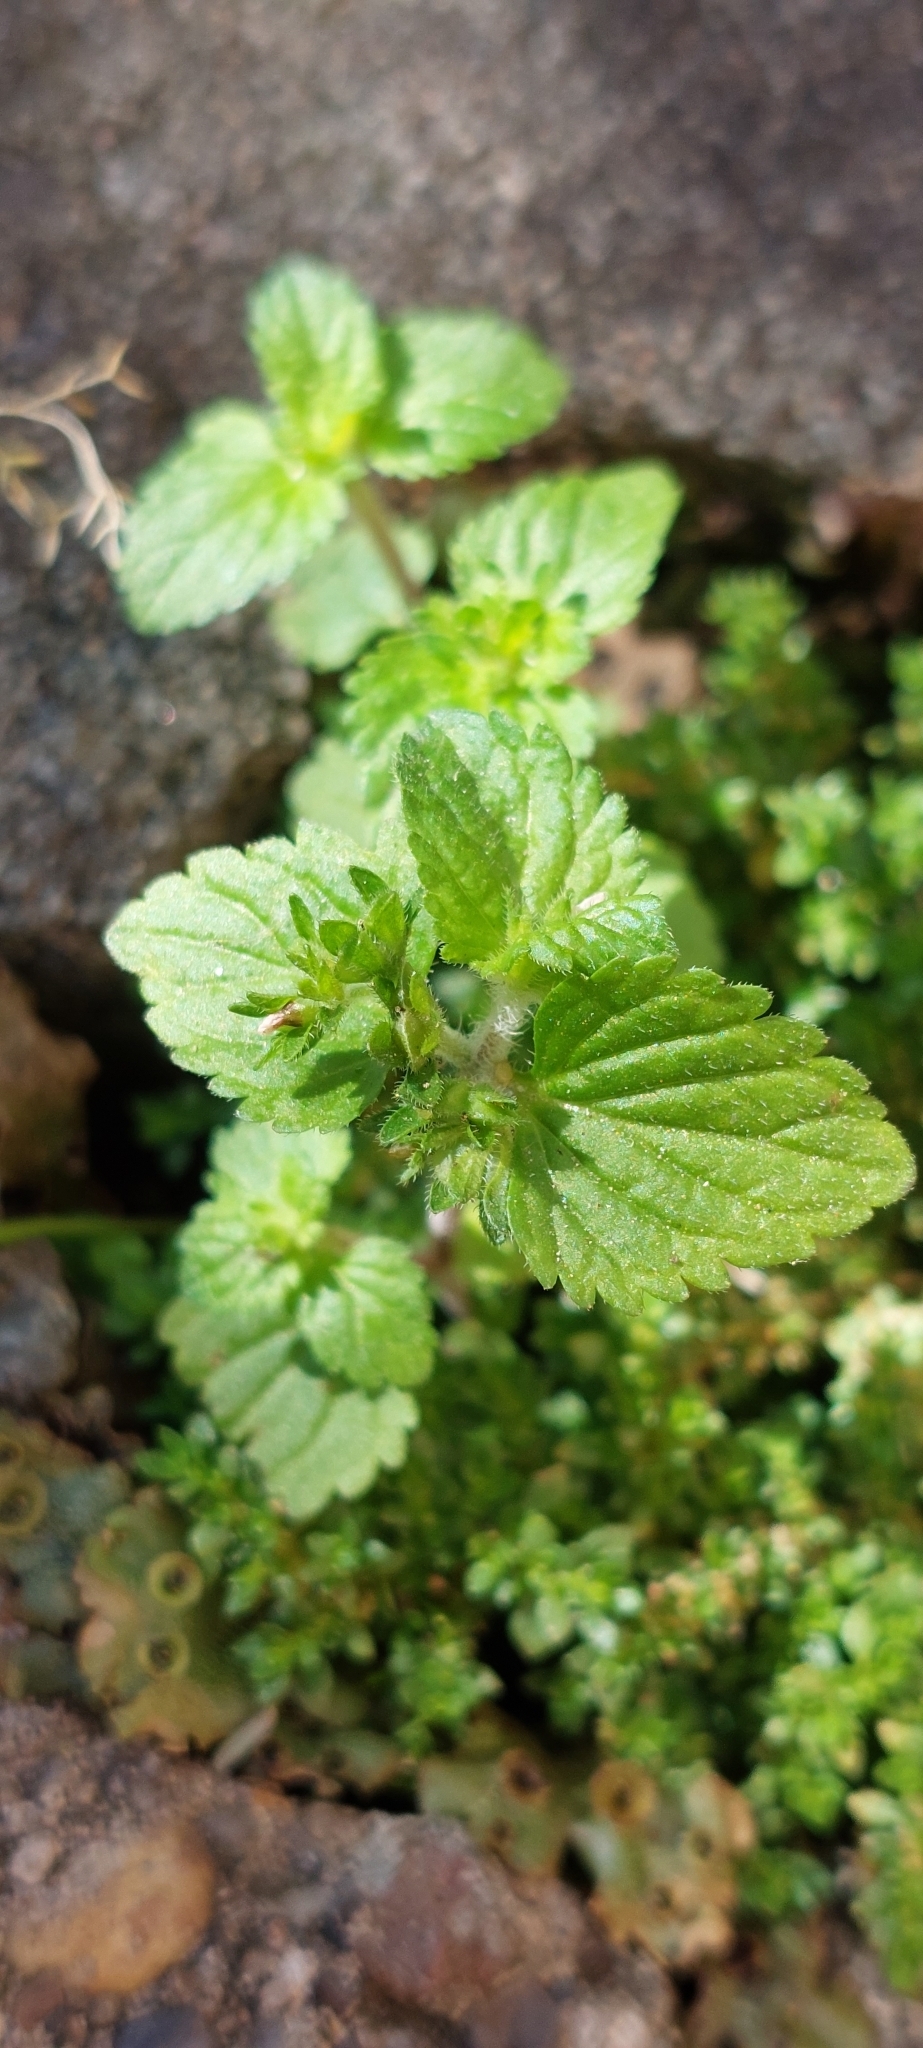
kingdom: Plantae
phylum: Tracheophyta
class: Magnoliopsida
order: Lamiales
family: Plantaginaceae
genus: Veronica
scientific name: Veronica javanica
